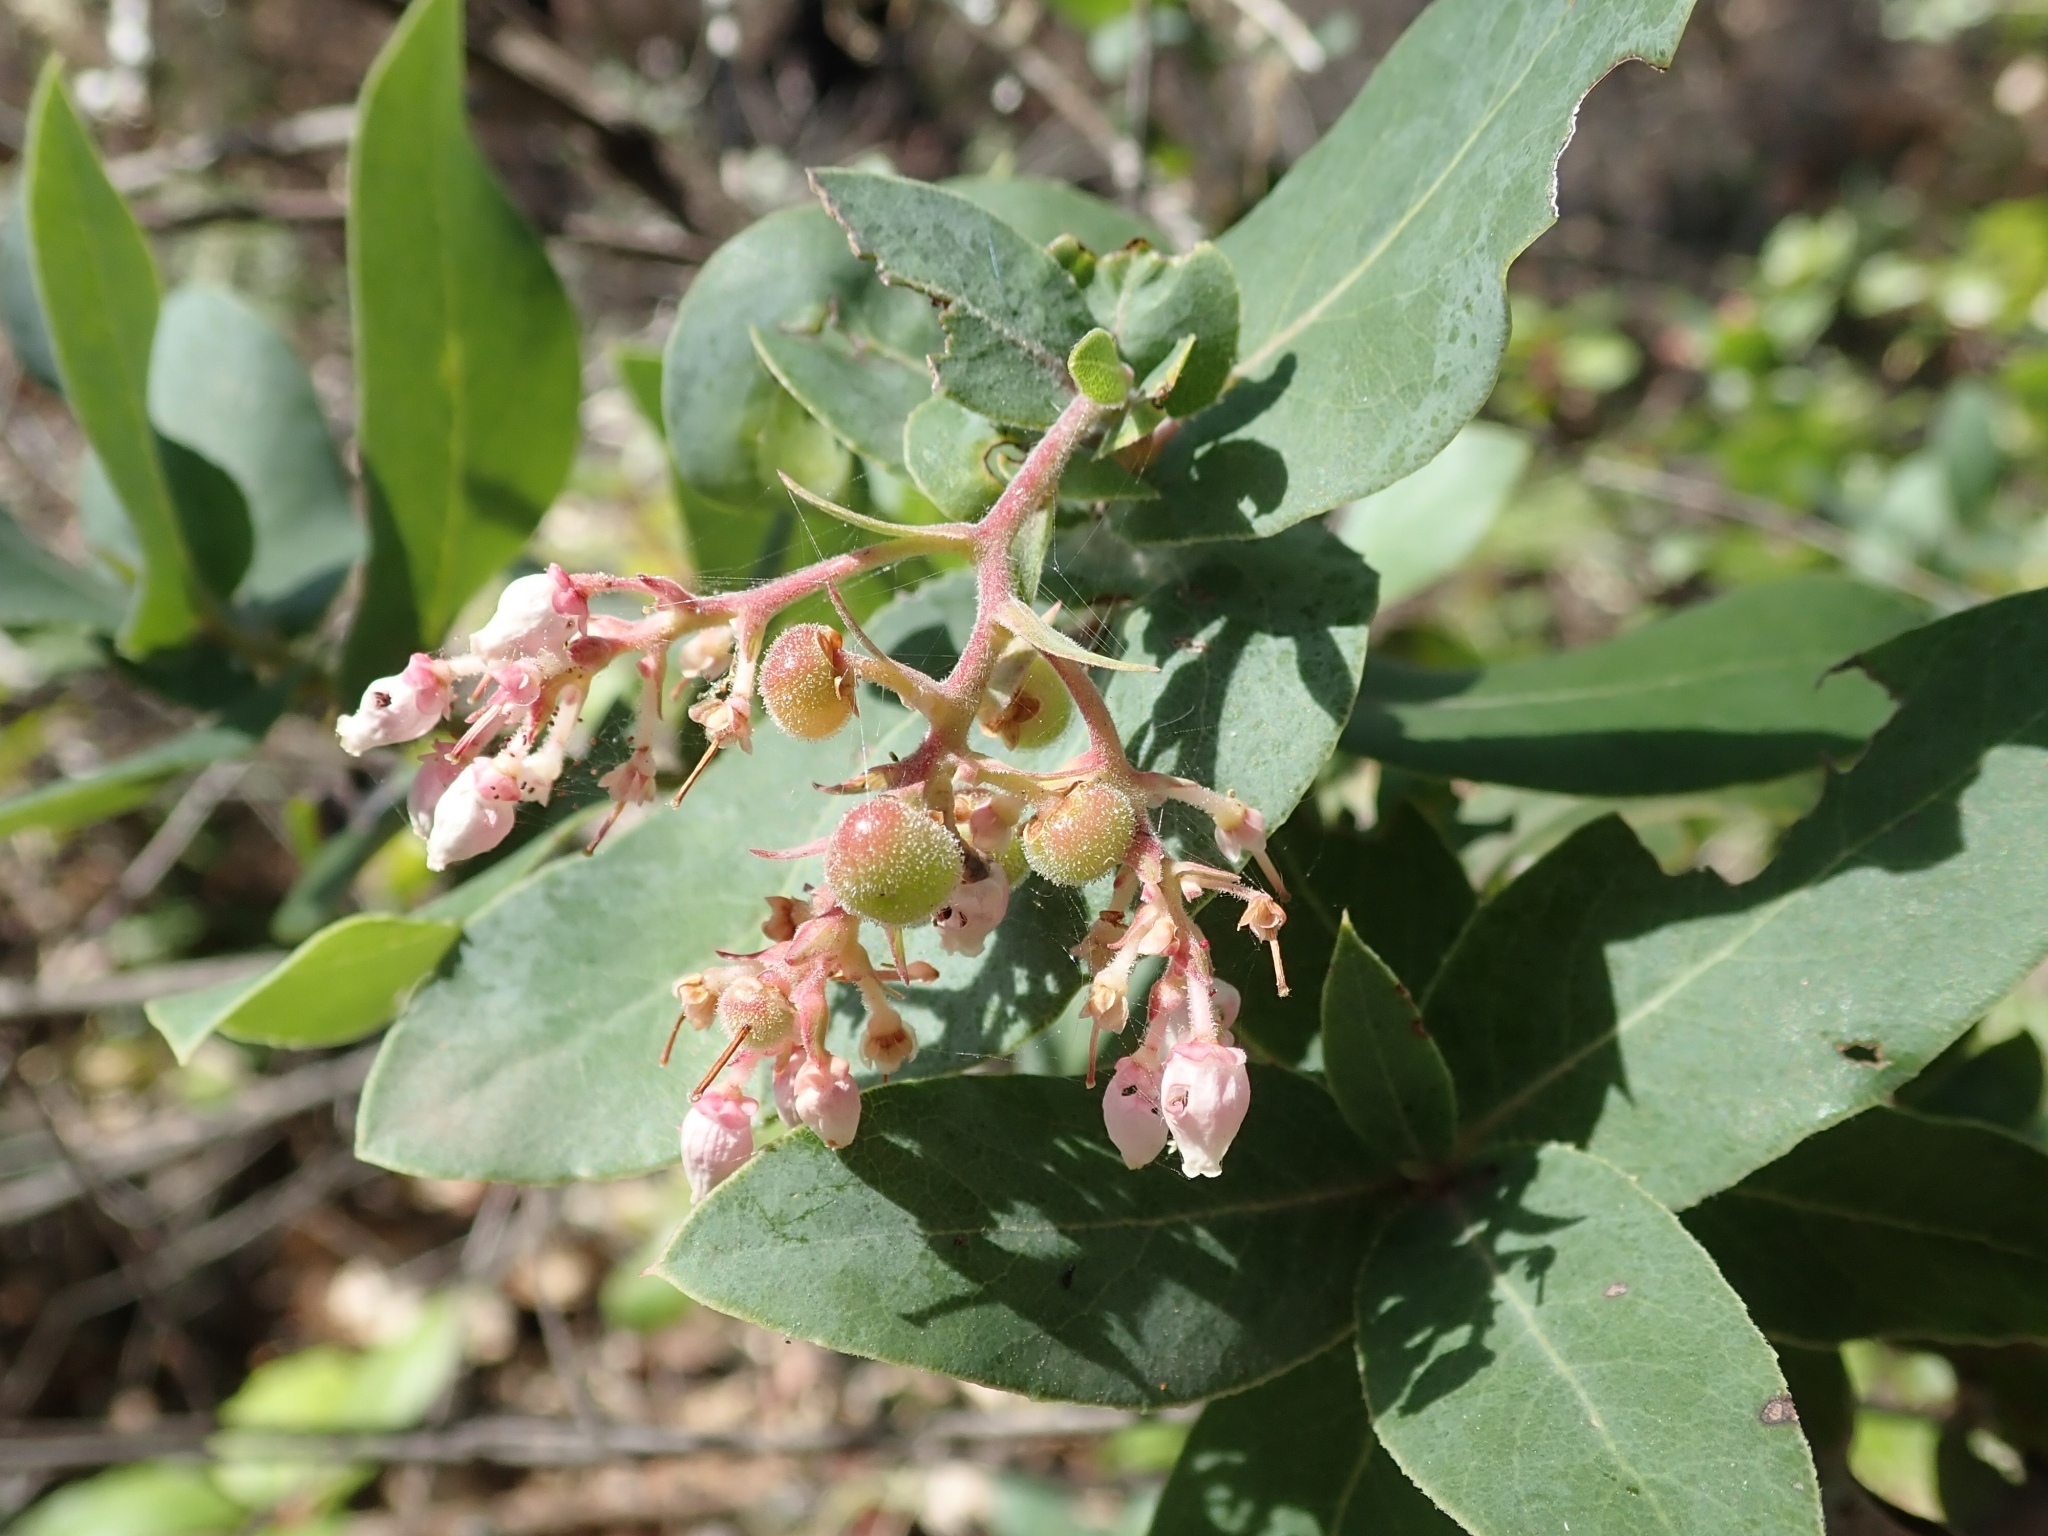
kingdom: Plantae
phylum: Tracheophyta
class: Magnoliopsida
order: Ericales
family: Ericaceae
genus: Arctostaphylos
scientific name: Arctostaphylos andersonii
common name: Santa cruz manzanita
